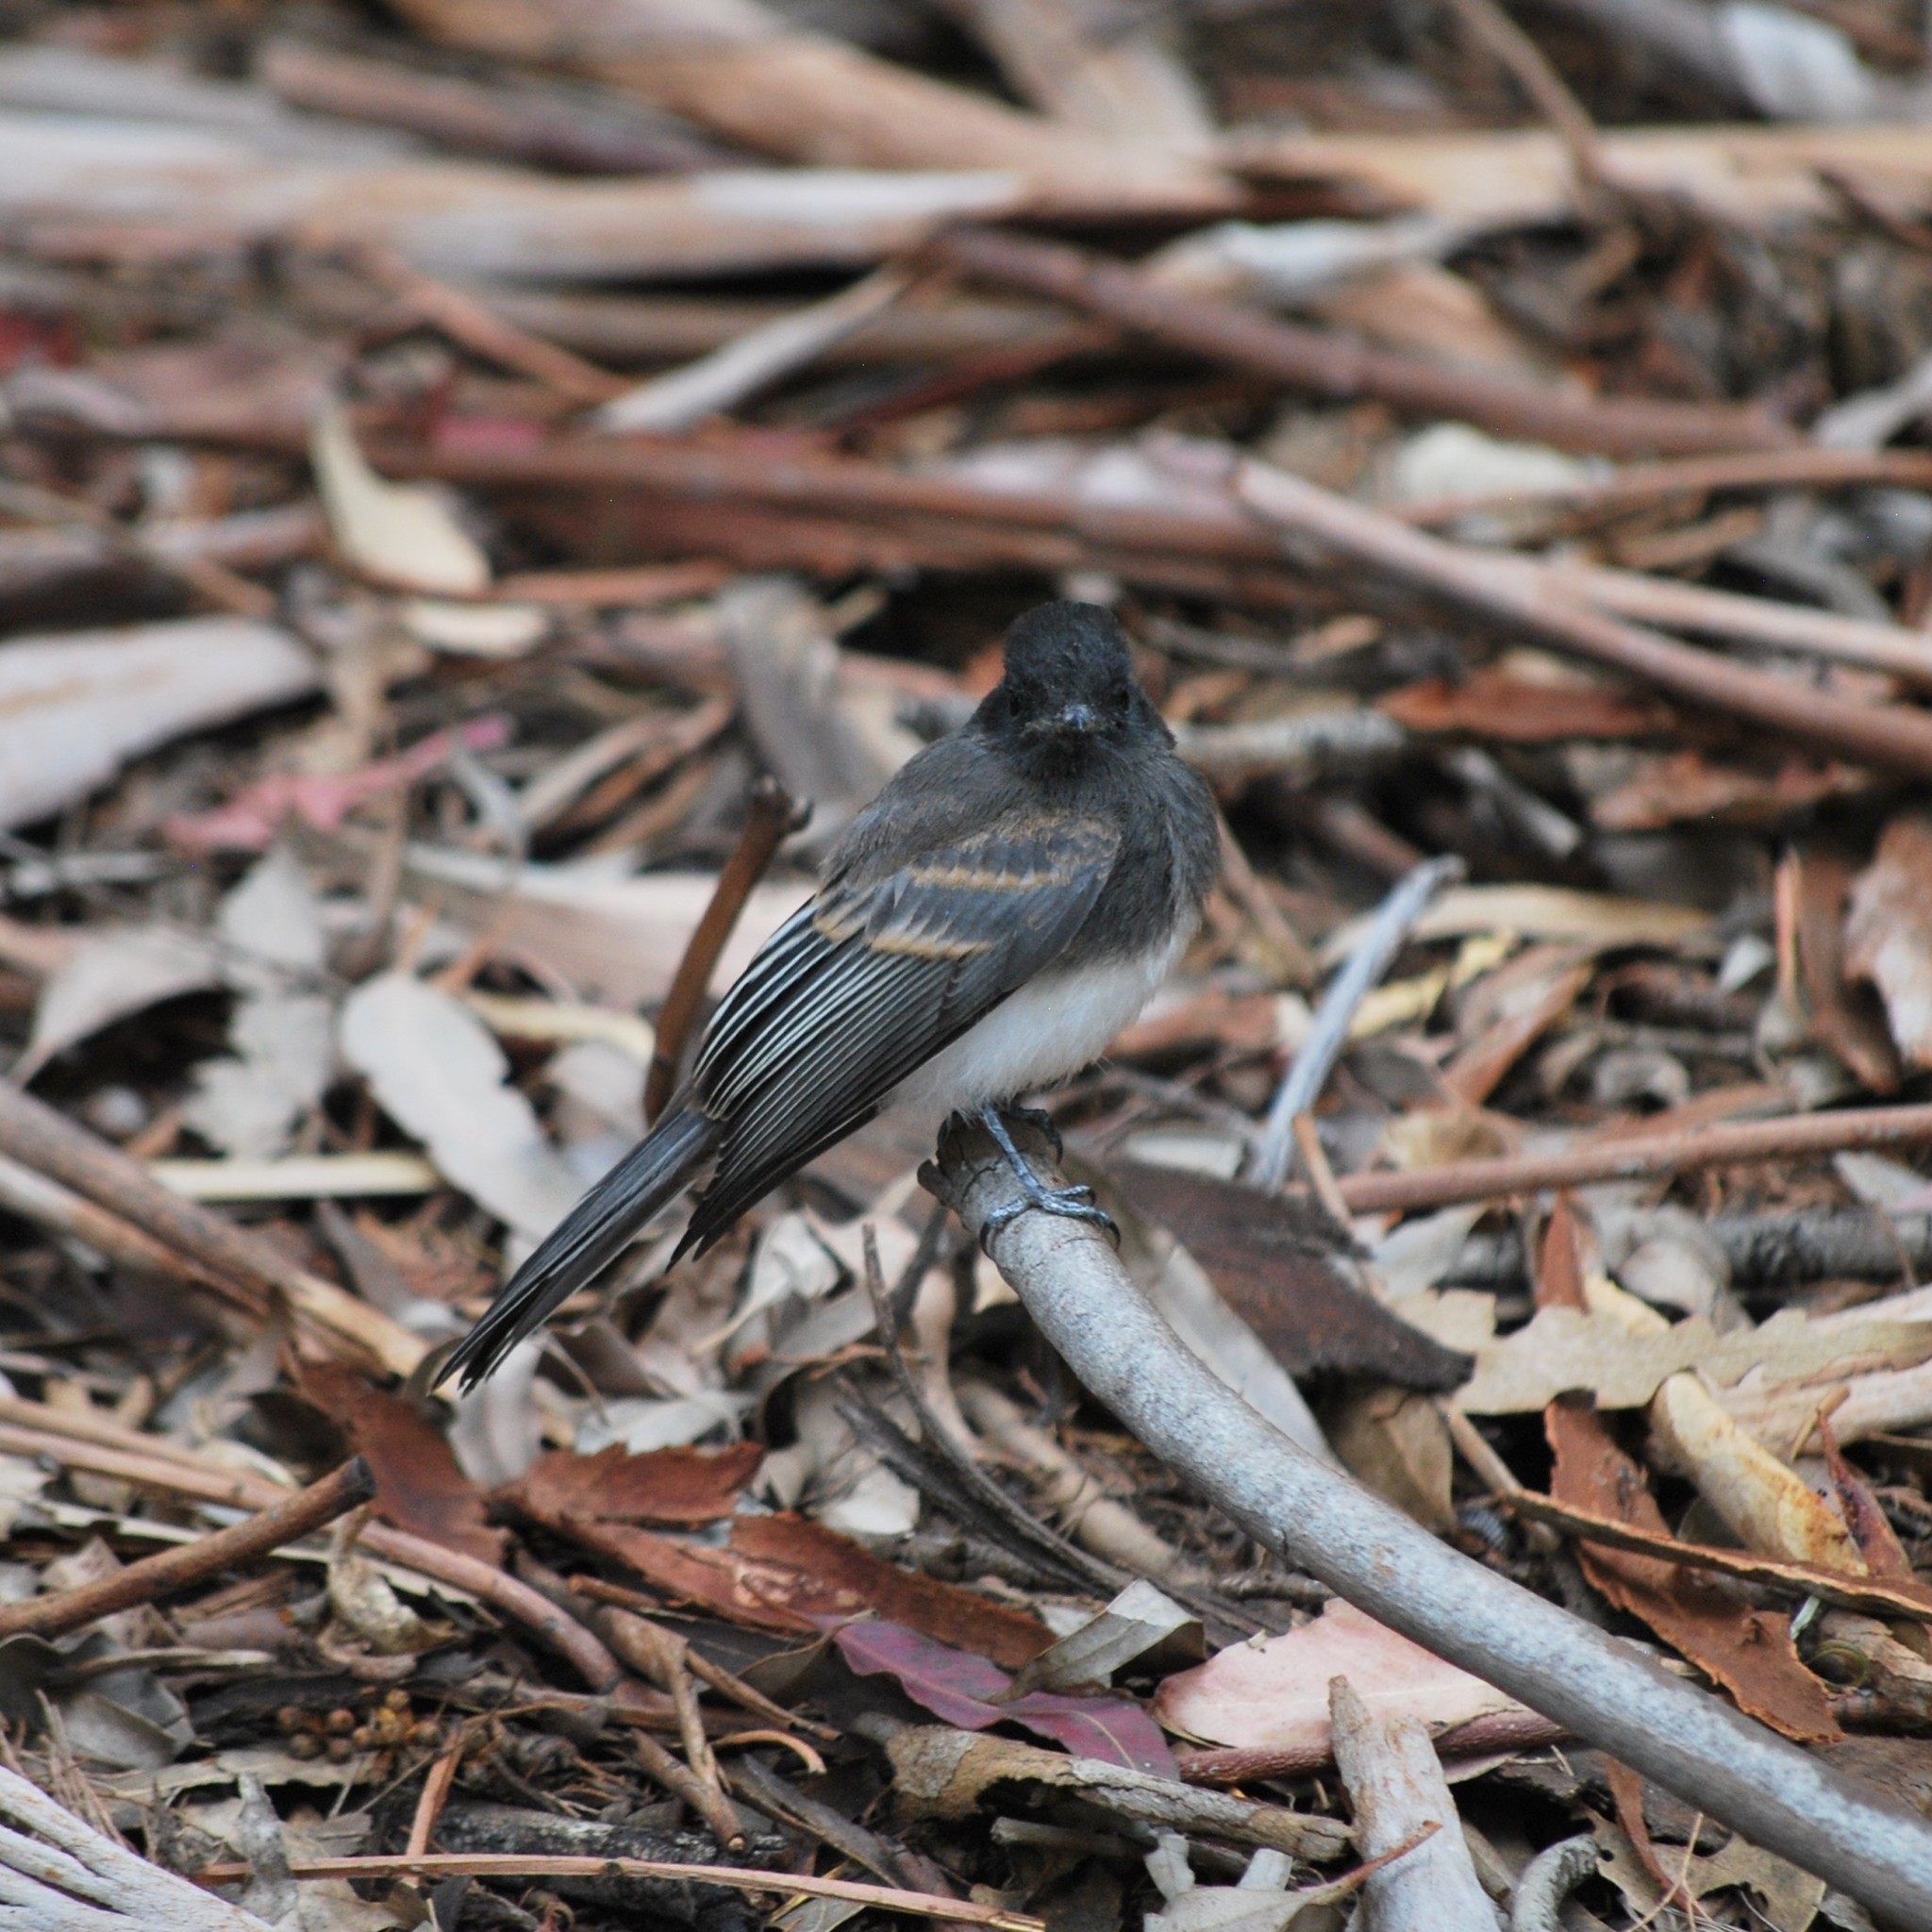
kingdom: Animalia
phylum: Chordata
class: Aves
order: Passeriformes
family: Tyrannidae
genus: Sayornis
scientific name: Sayornis nigricans
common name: Black phoebe
